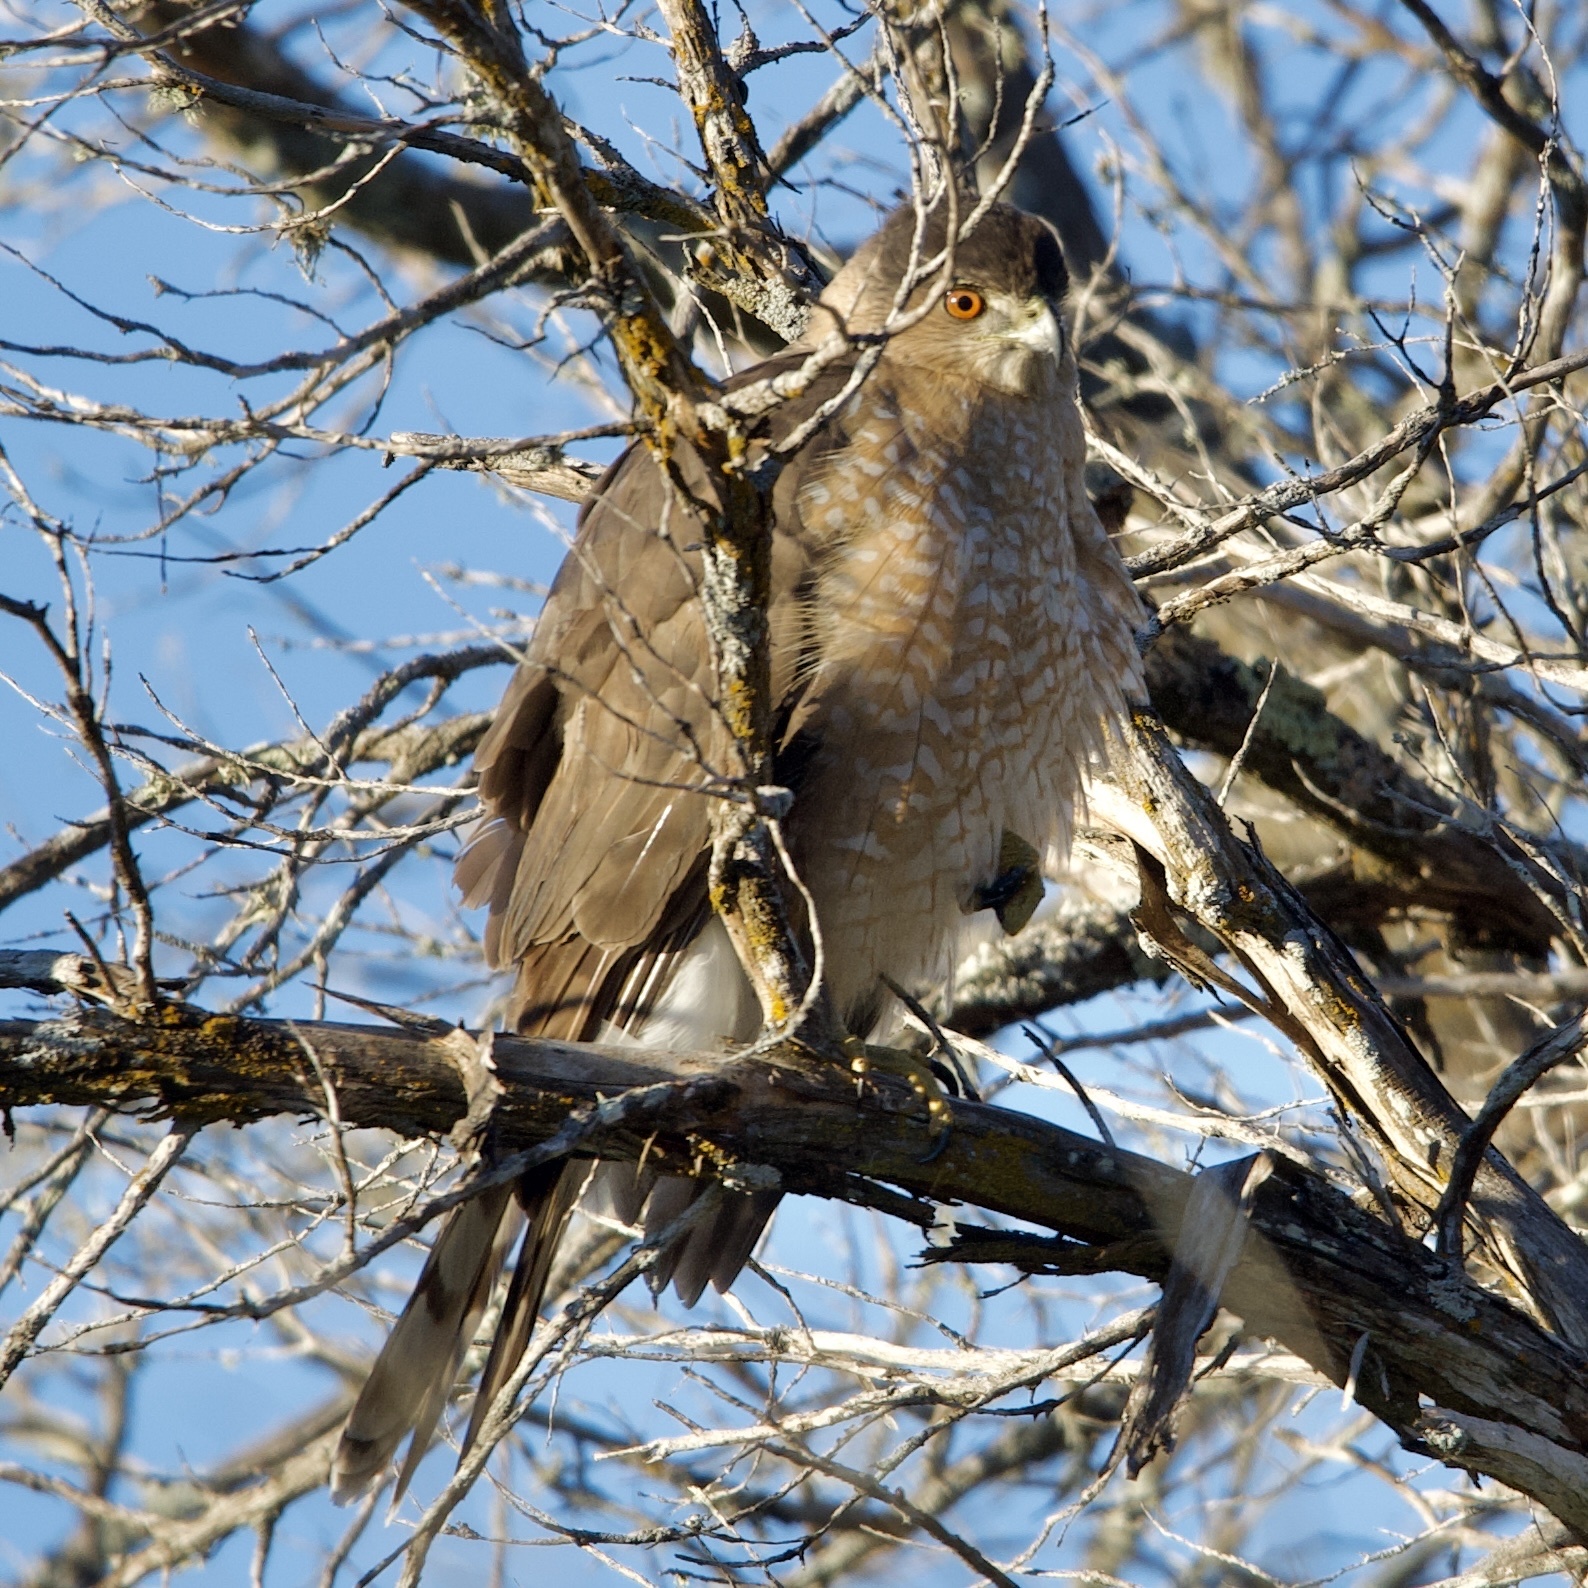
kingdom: Animalia
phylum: Chordata
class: Aves
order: Accipitriformes
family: Accipitridae
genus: Accipiter
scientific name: Accipiter cooperii
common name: Cooper's hawk
